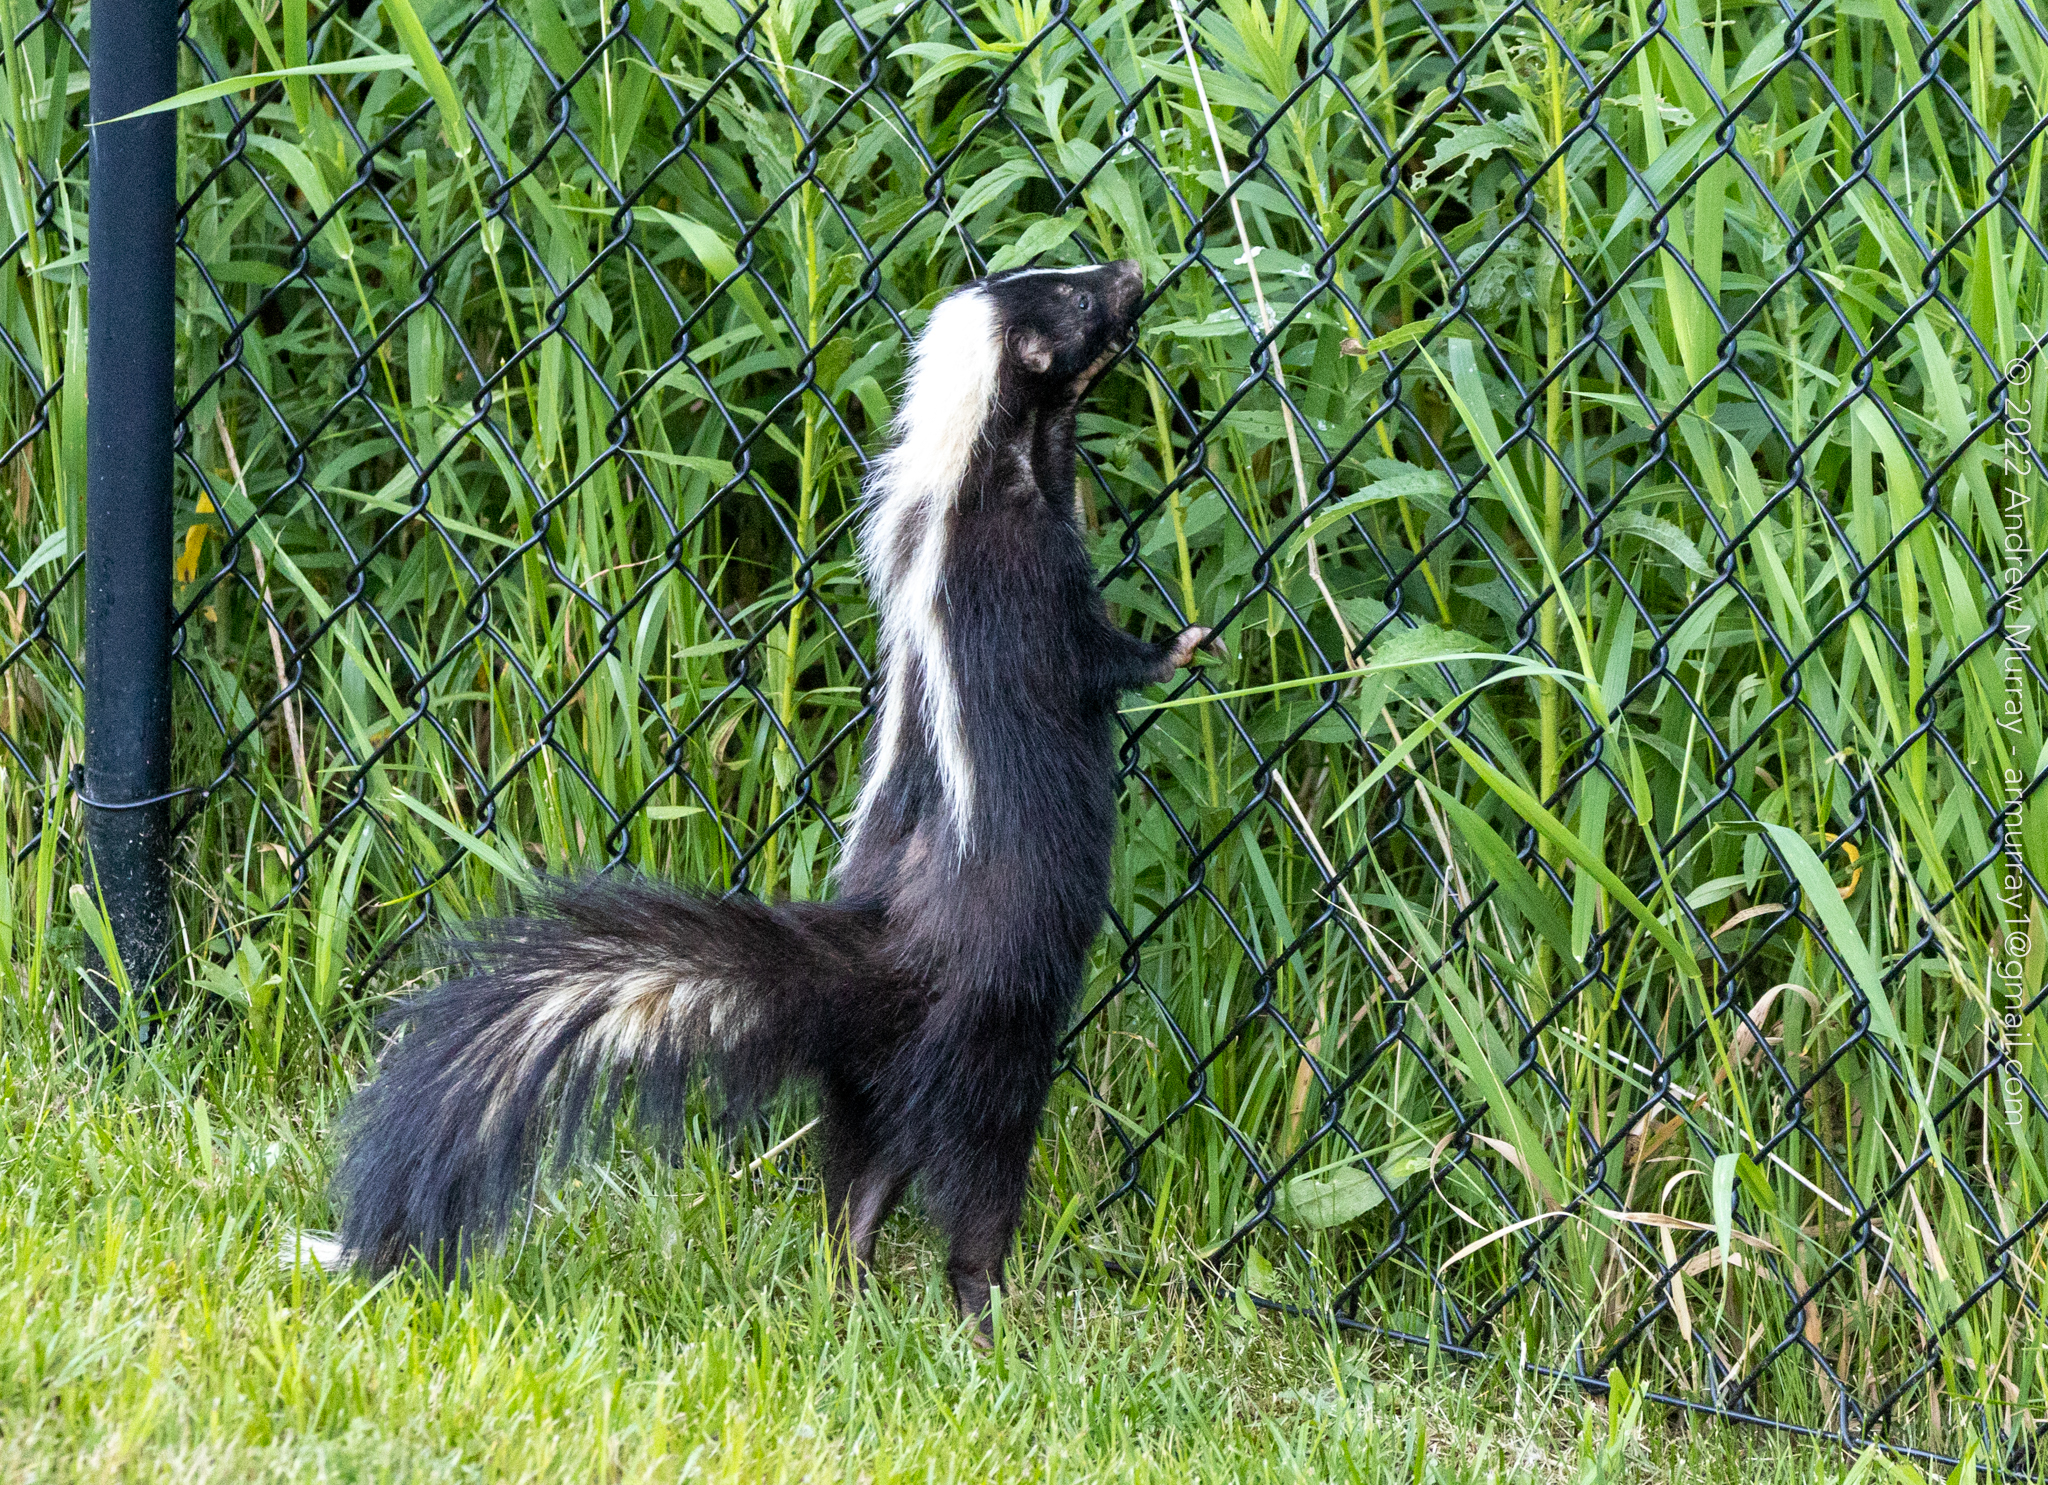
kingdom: Animalia
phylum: Chordata
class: Mammalia
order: Carnivora
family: Mephitidae
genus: Mephitis
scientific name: Mephitis mephitis
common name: Striped skunk
